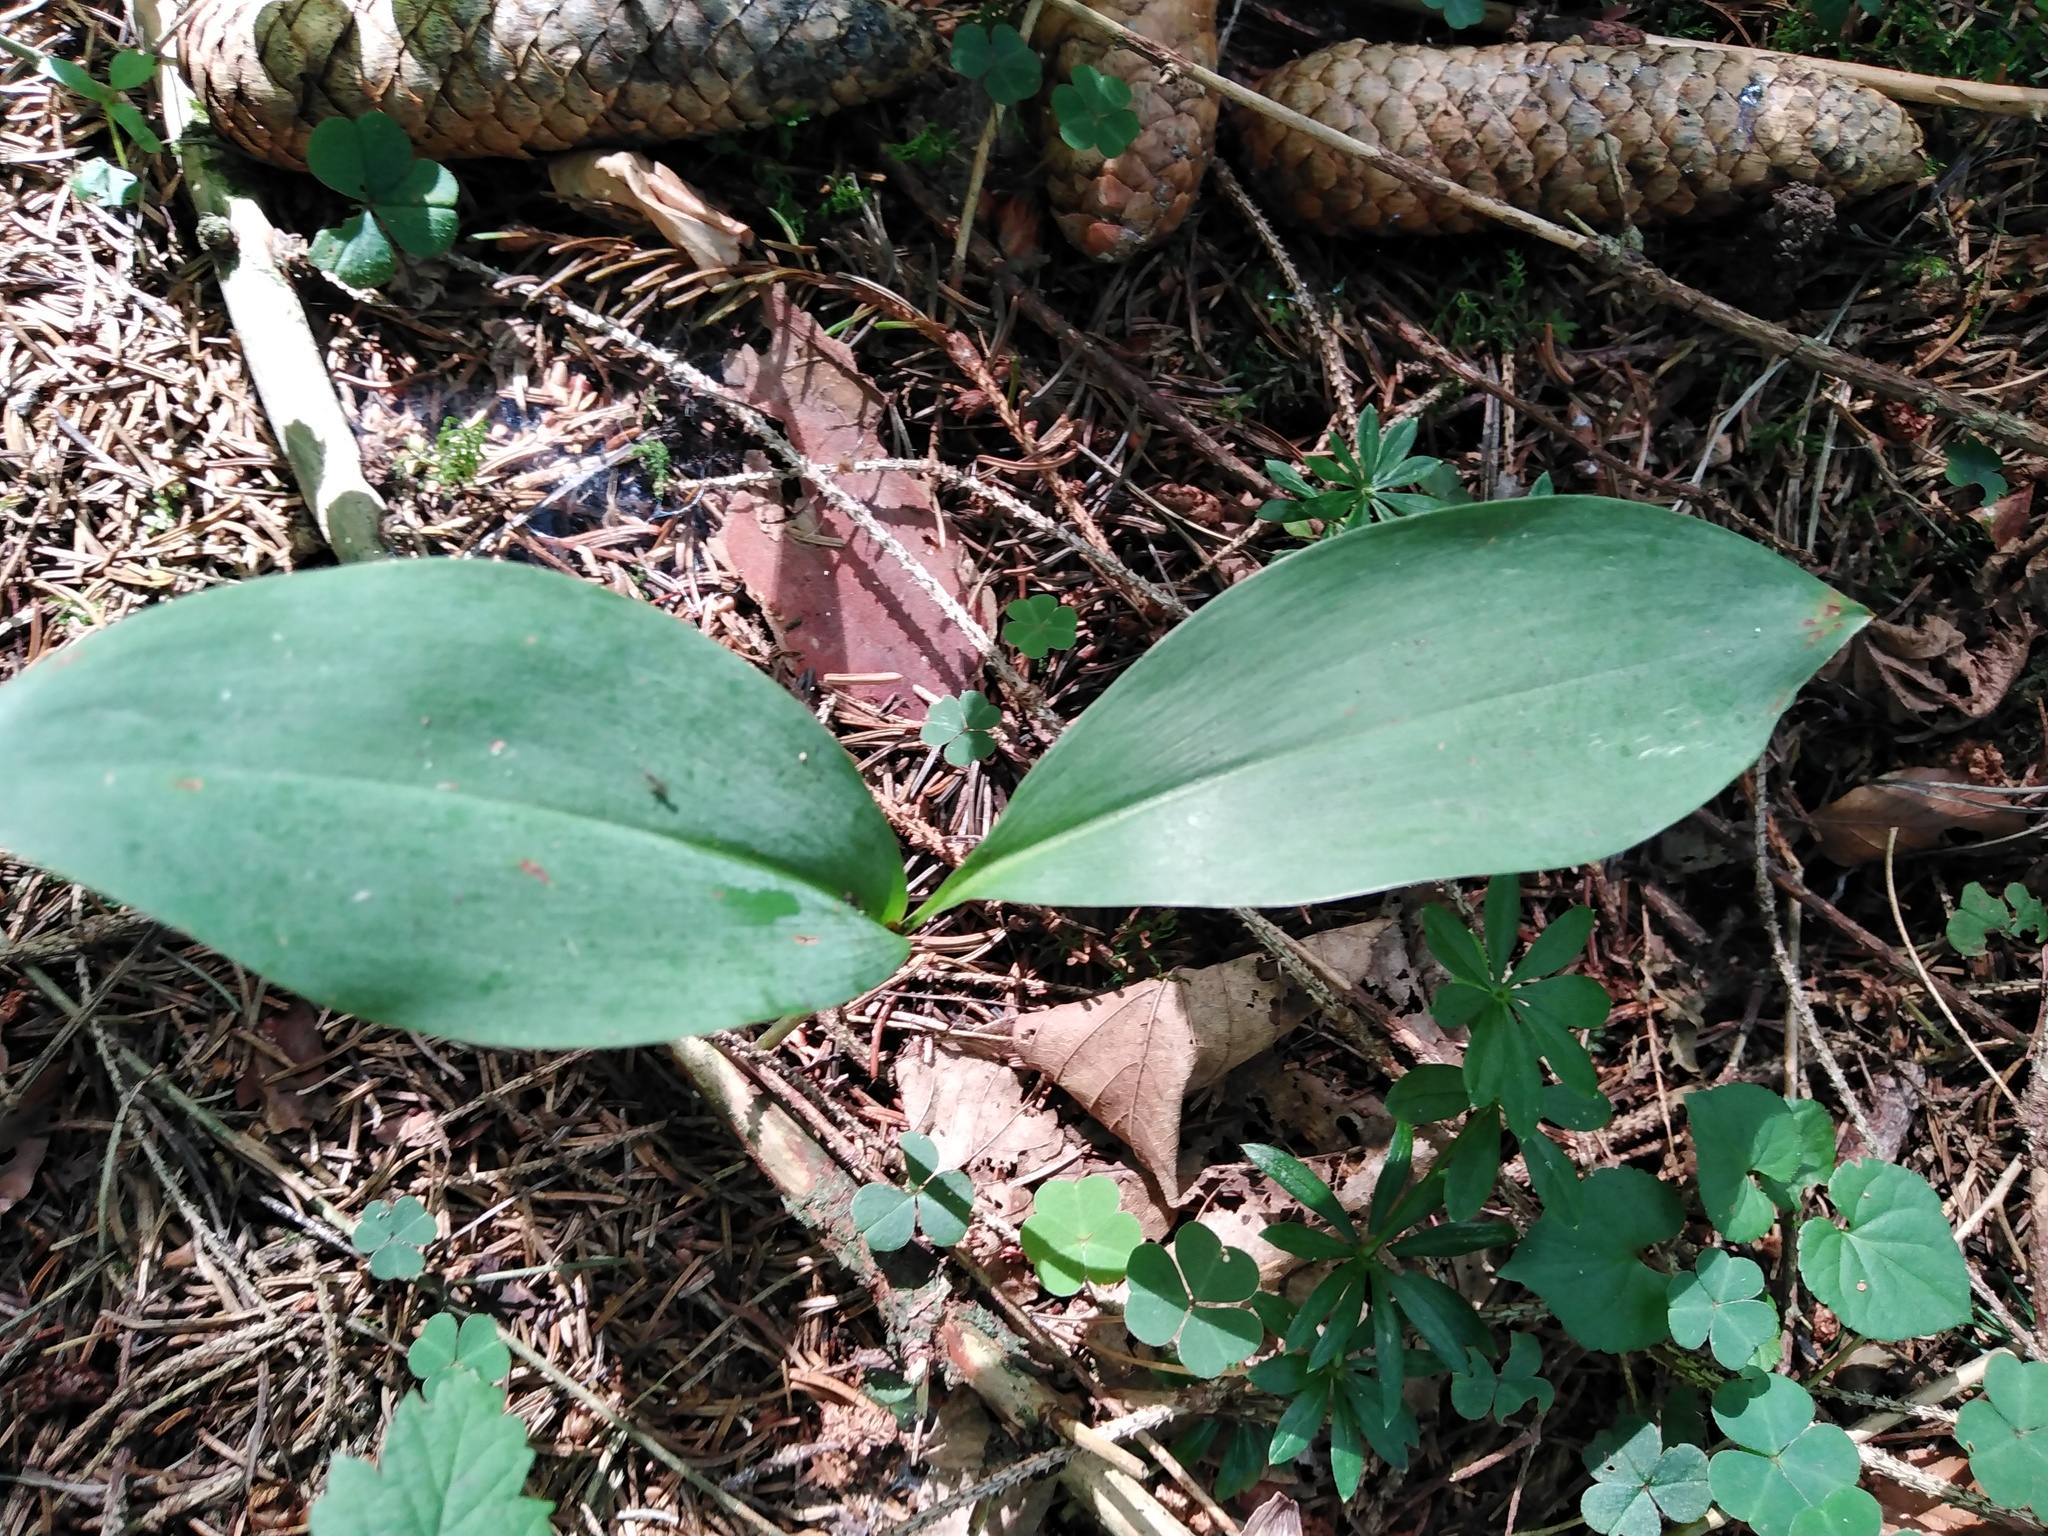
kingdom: Plantae
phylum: Tracheophyta
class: Liliopsida
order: Asparagales
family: Asparagaceae
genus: Convallaria
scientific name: Convallaria majalis
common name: Lily-of-the-valley
